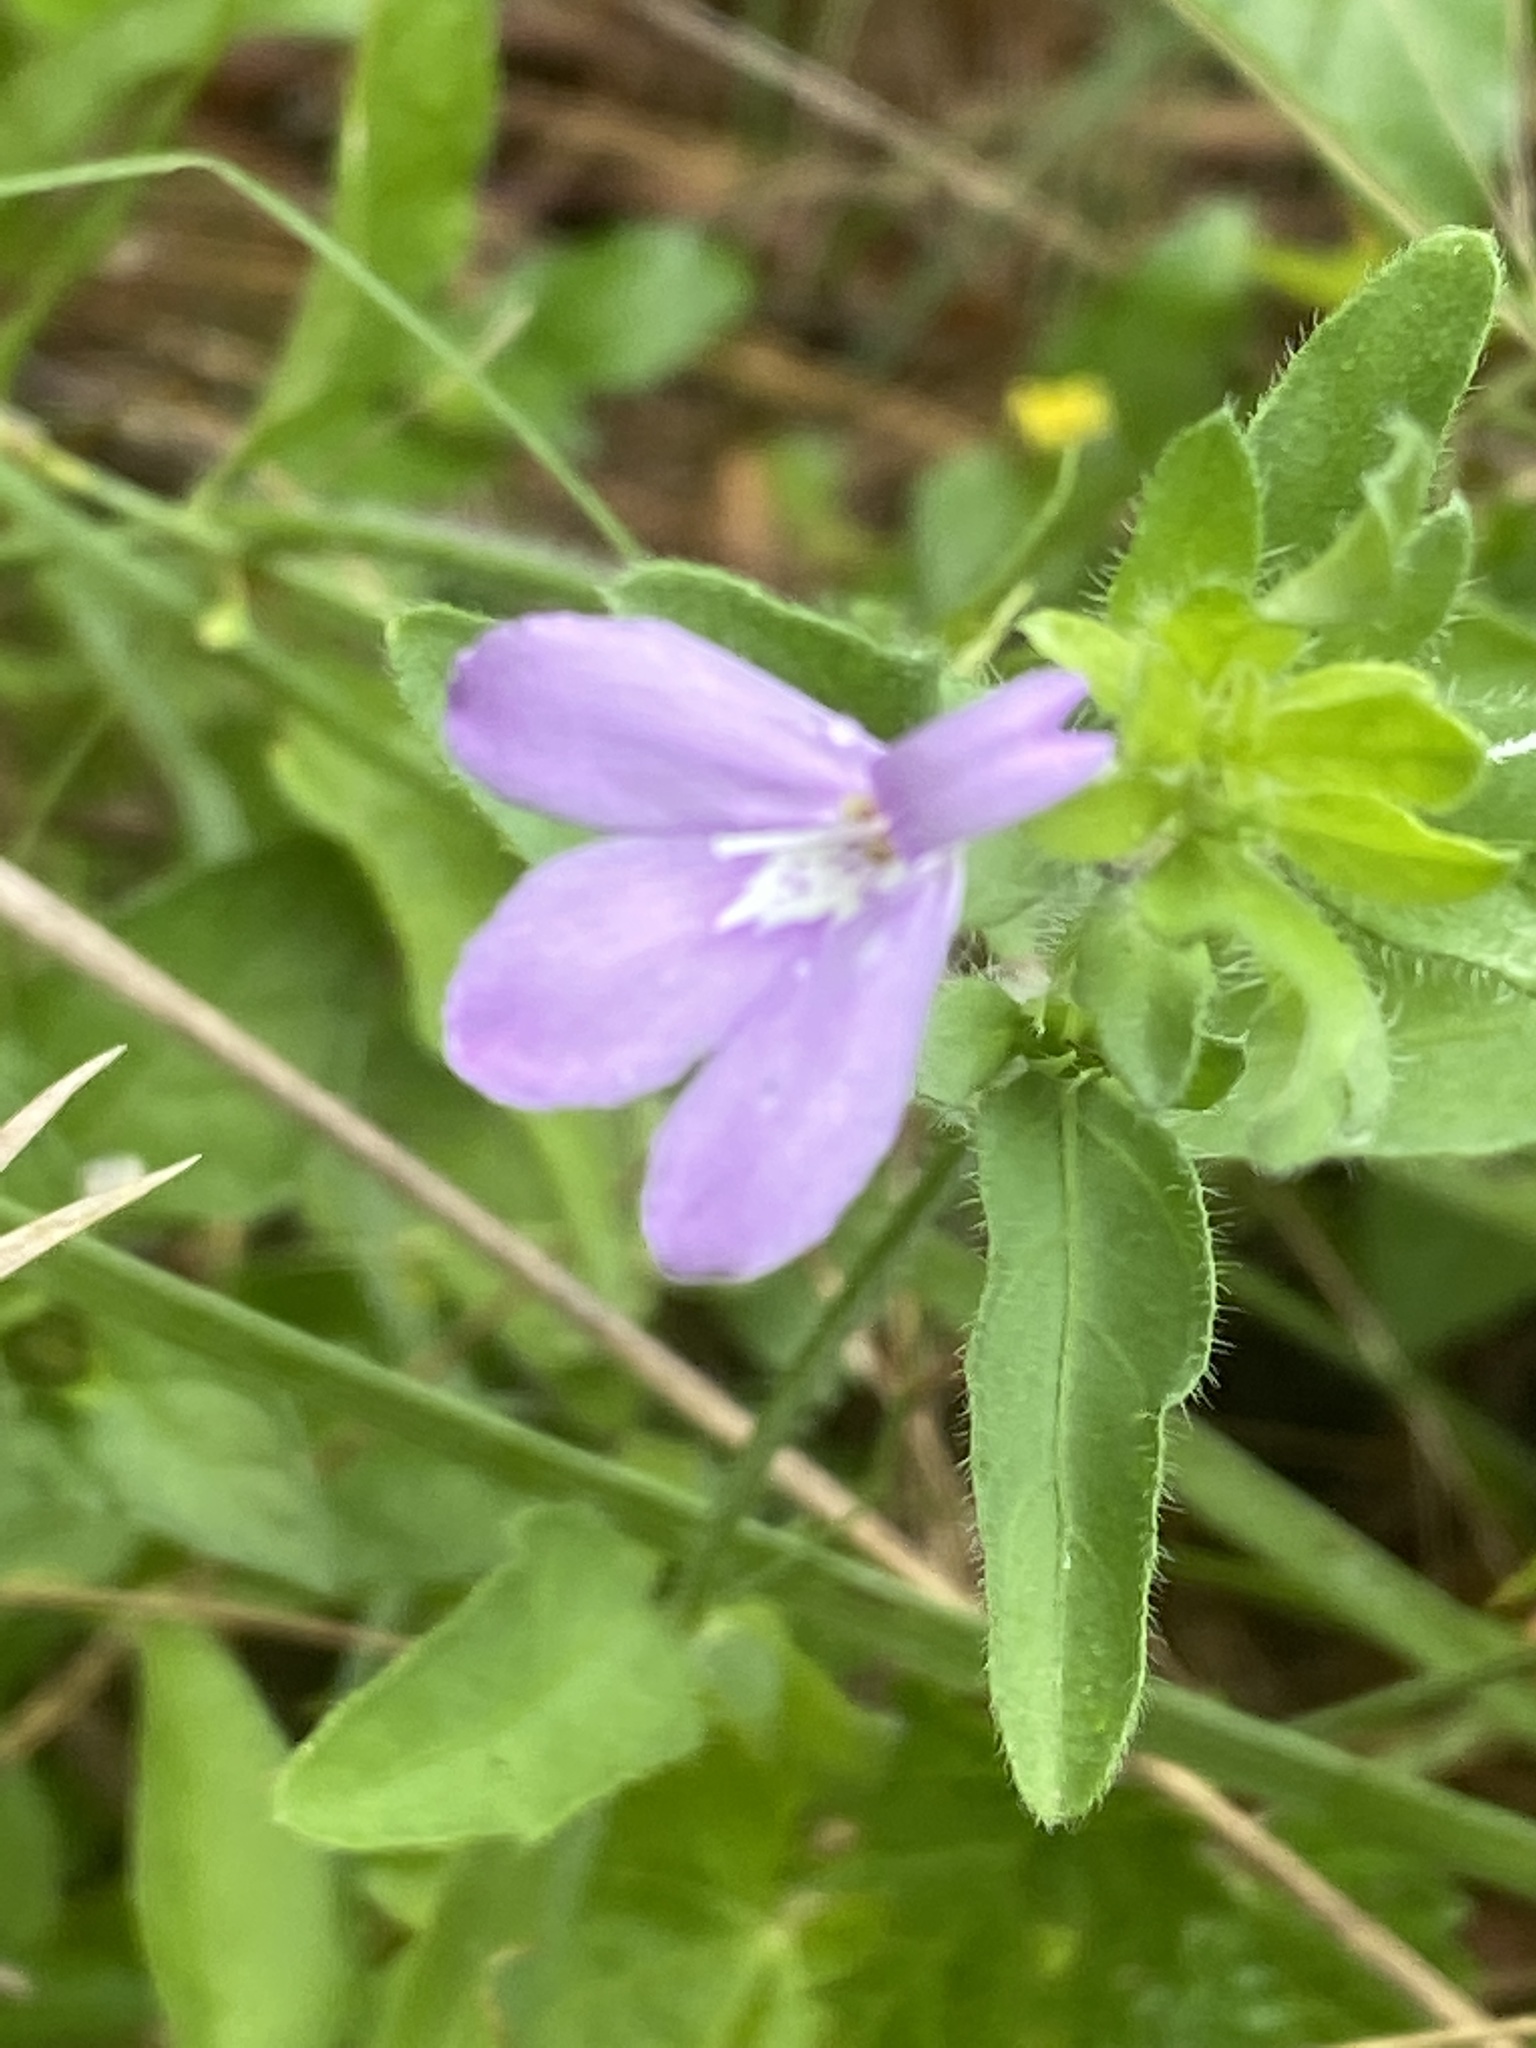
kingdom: Plantae
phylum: Tracheophyta
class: Magnoliopsida
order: Lamiales
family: Acanthaceae
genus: Justicia
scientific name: Justicia pilosella
